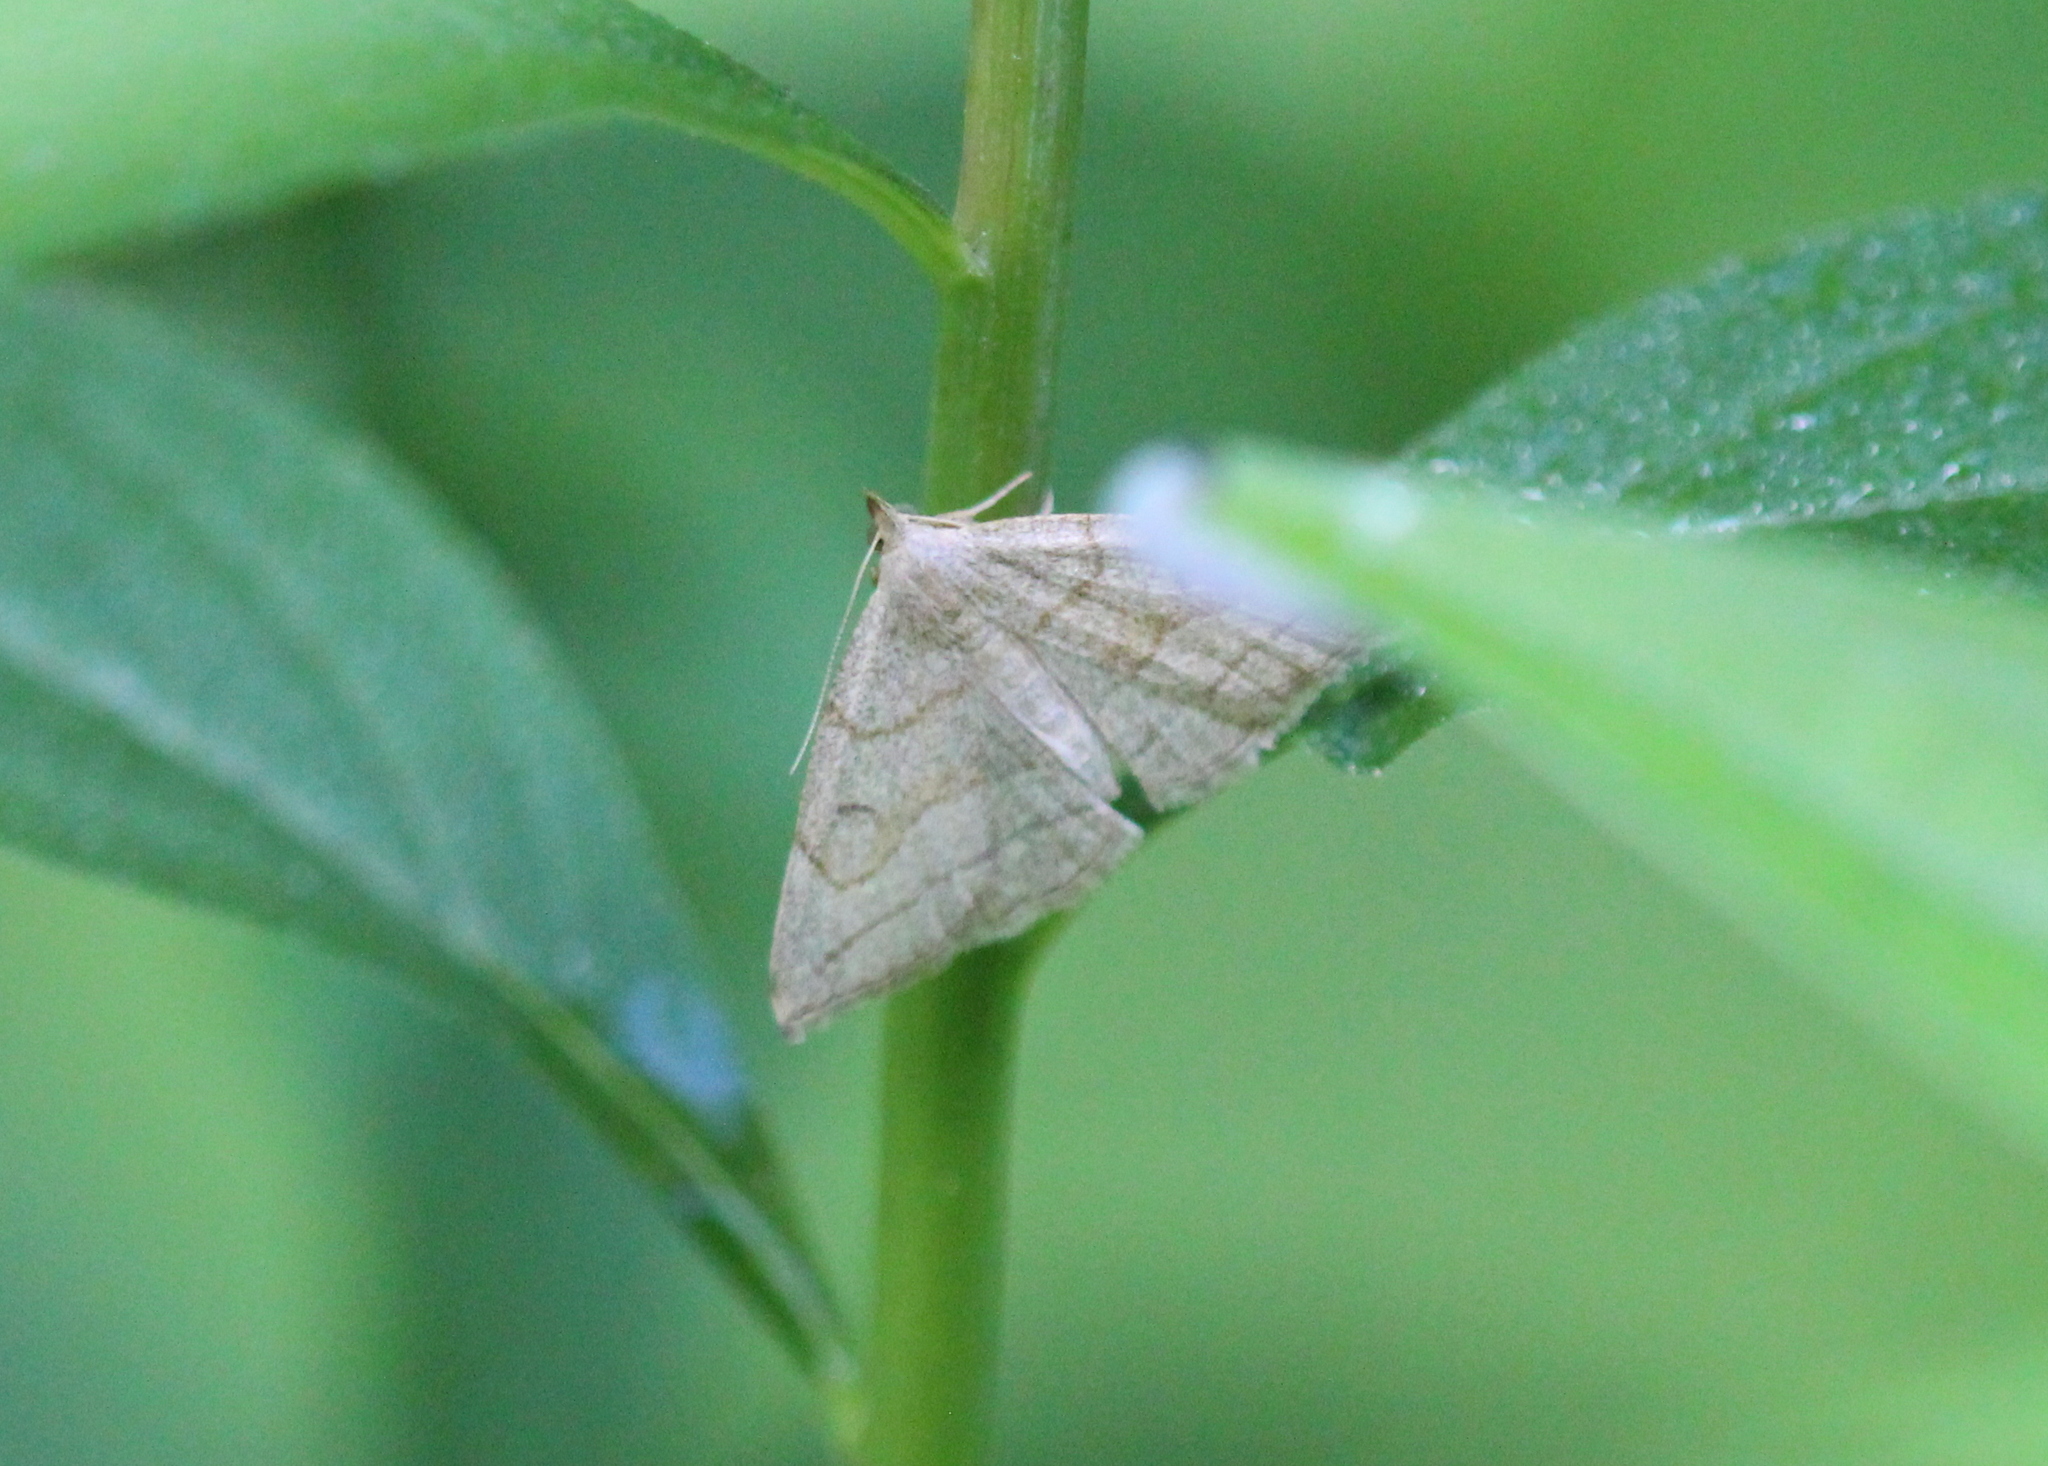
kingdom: Animalia
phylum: Arthropoda
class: Insecta
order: Lepidoptera
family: Erebidae
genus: Zanclognatha
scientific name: Zanclognatha pedipilalis
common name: Grayish fan-foot
